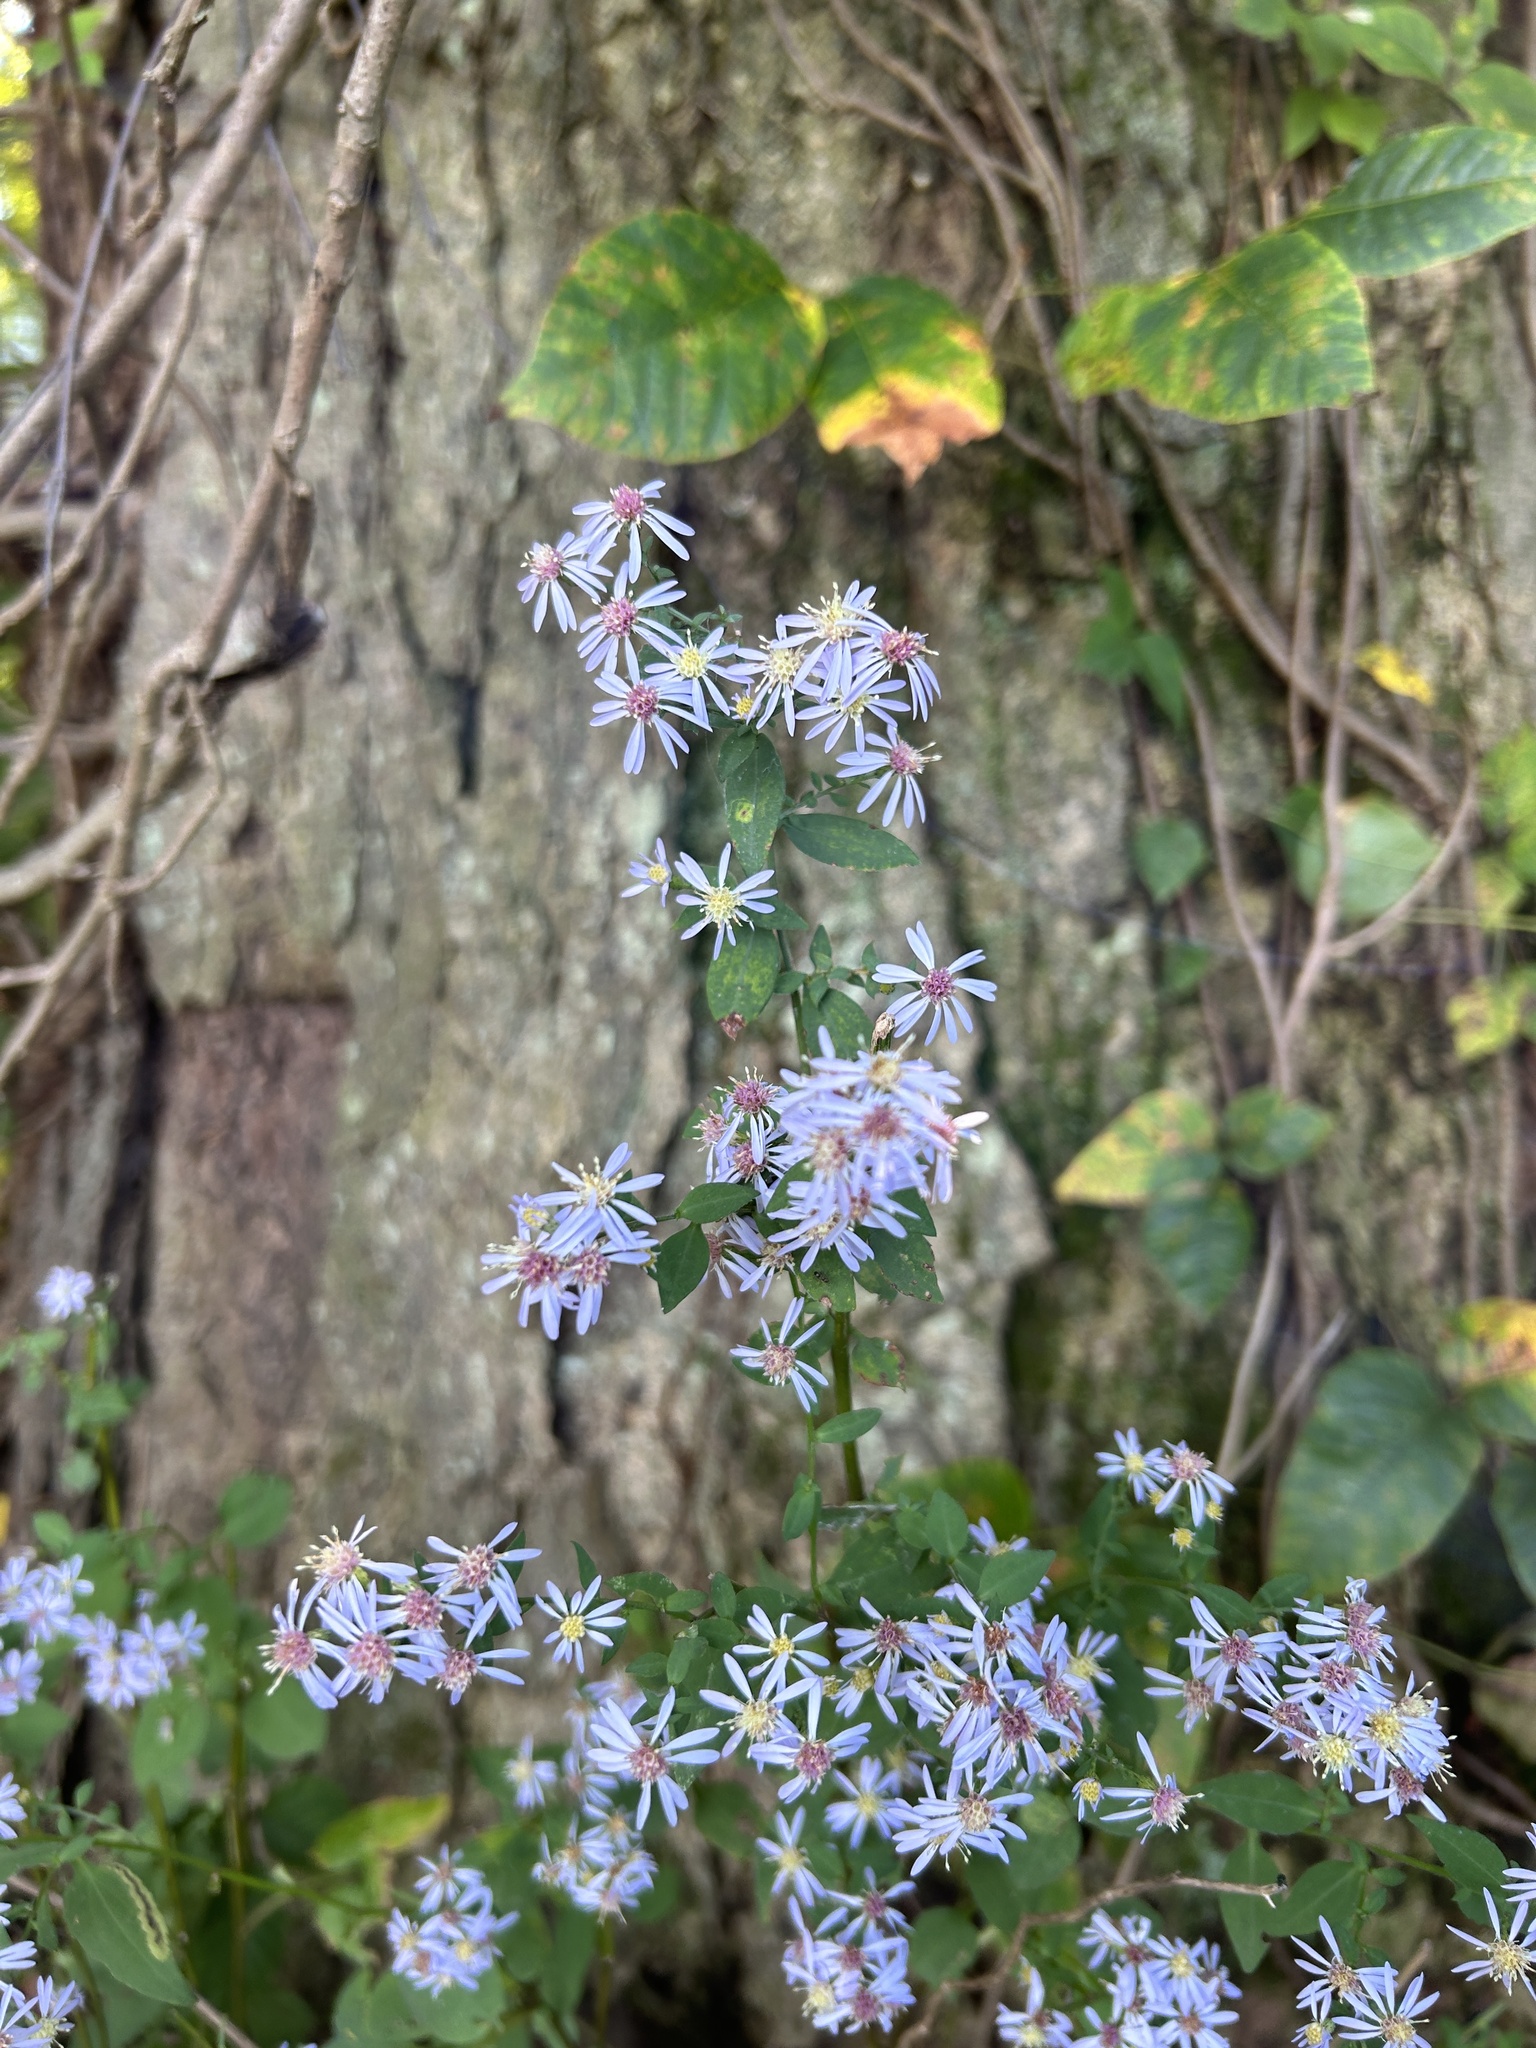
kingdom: Plantae
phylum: Tracheophyta
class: Magnoliopsida
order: Asterales
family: Asteraceae
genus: Symphyotrichum
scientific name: Symphyotrichum cordifolium
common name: Beeweed
